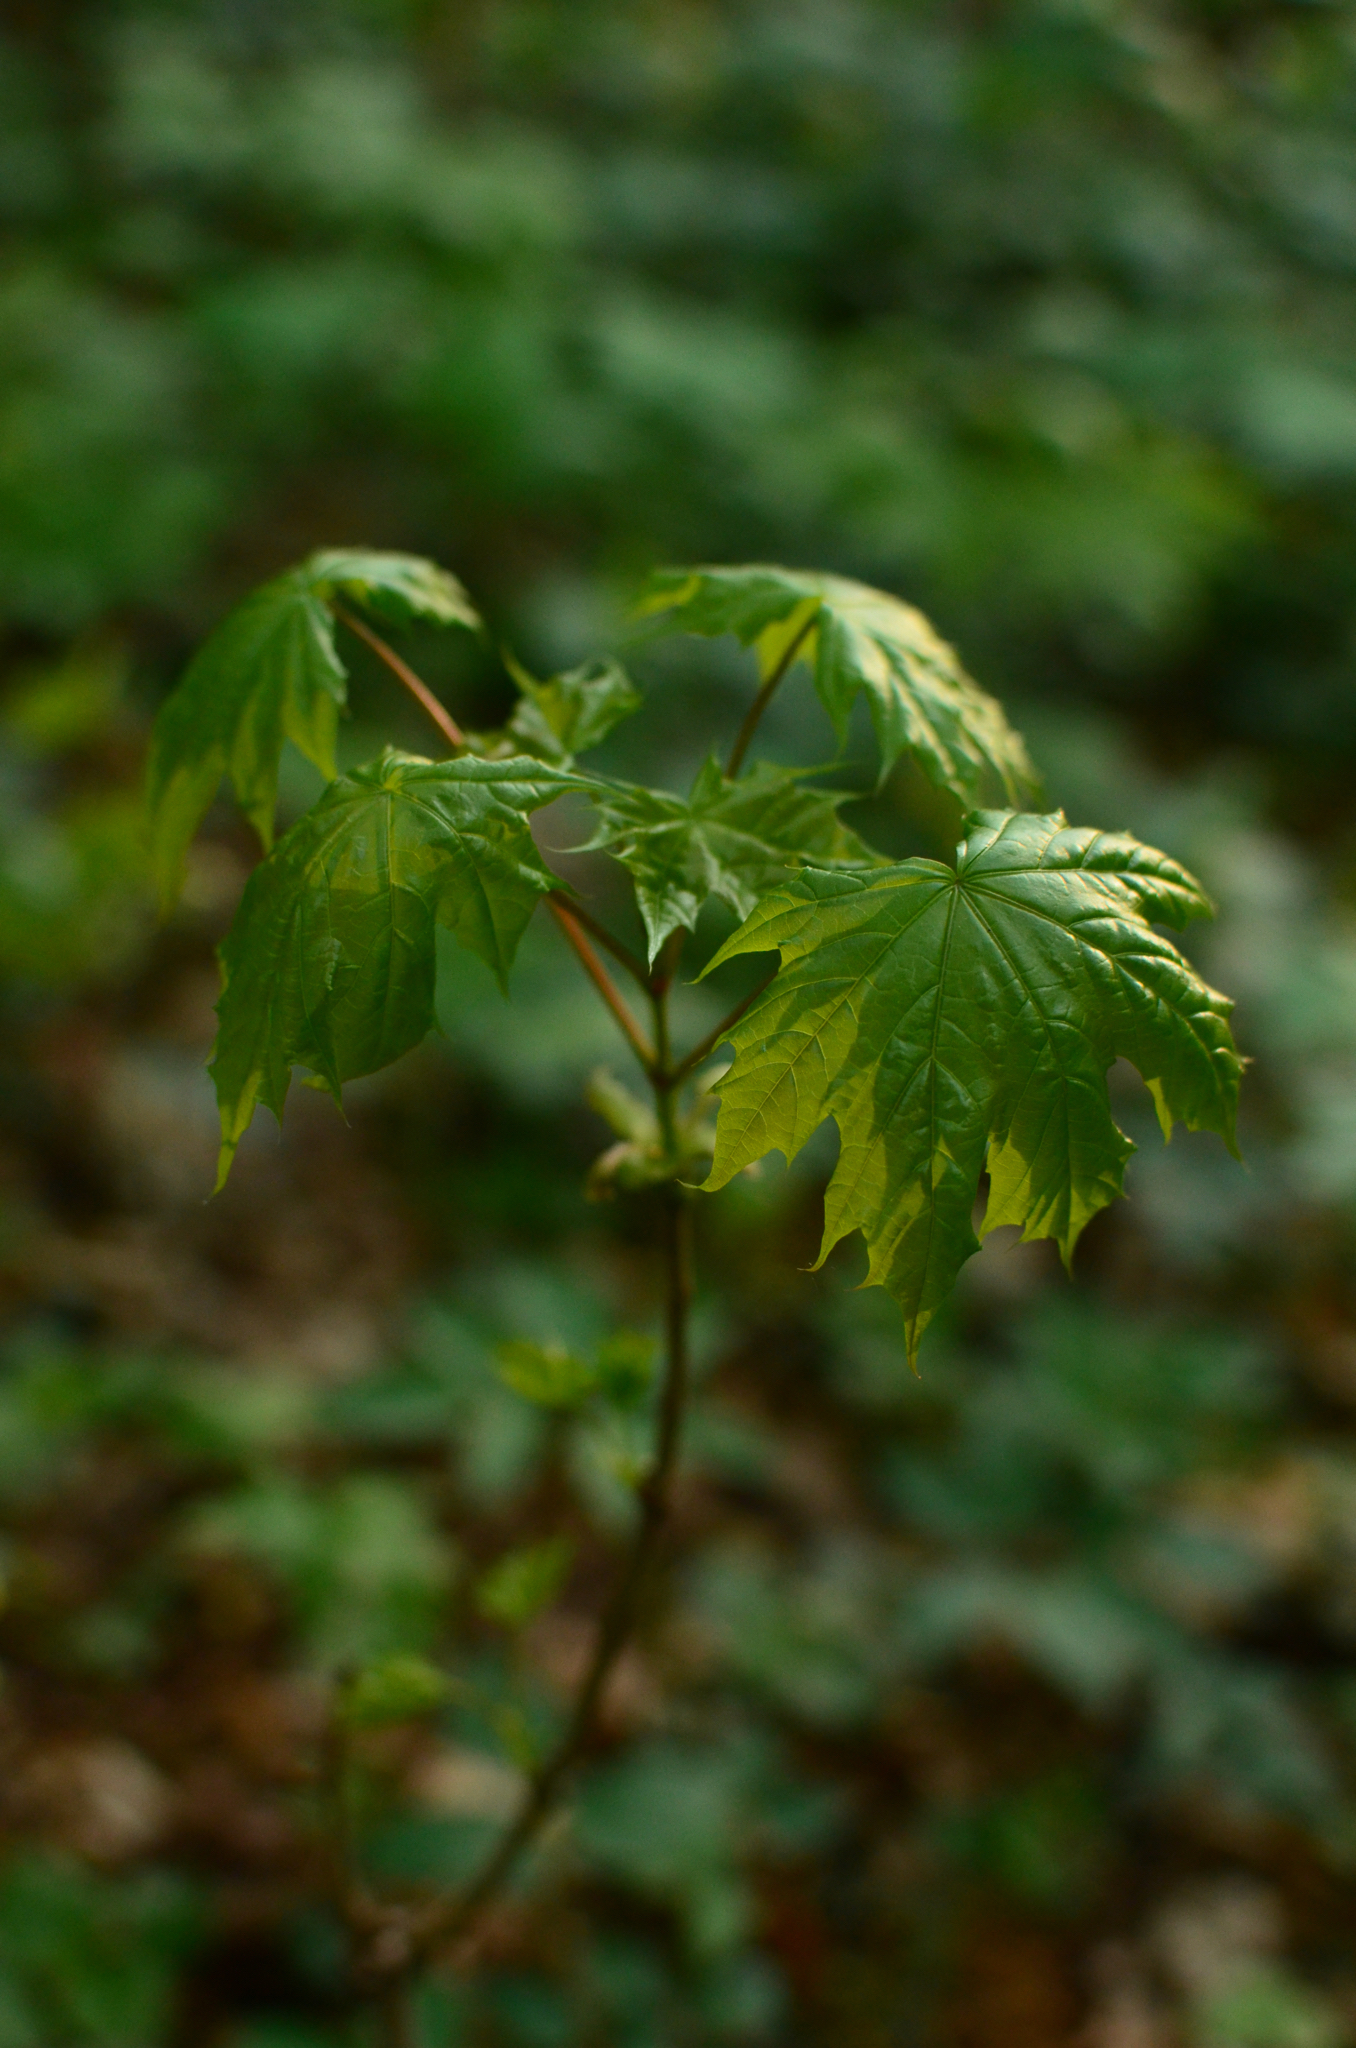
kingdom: Plantae
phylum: Tracheophyta
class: Magnoliopsida
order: Sapindales
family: Sapindaceae
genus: Acer
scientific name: Acer platanoides
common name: Norway maple
